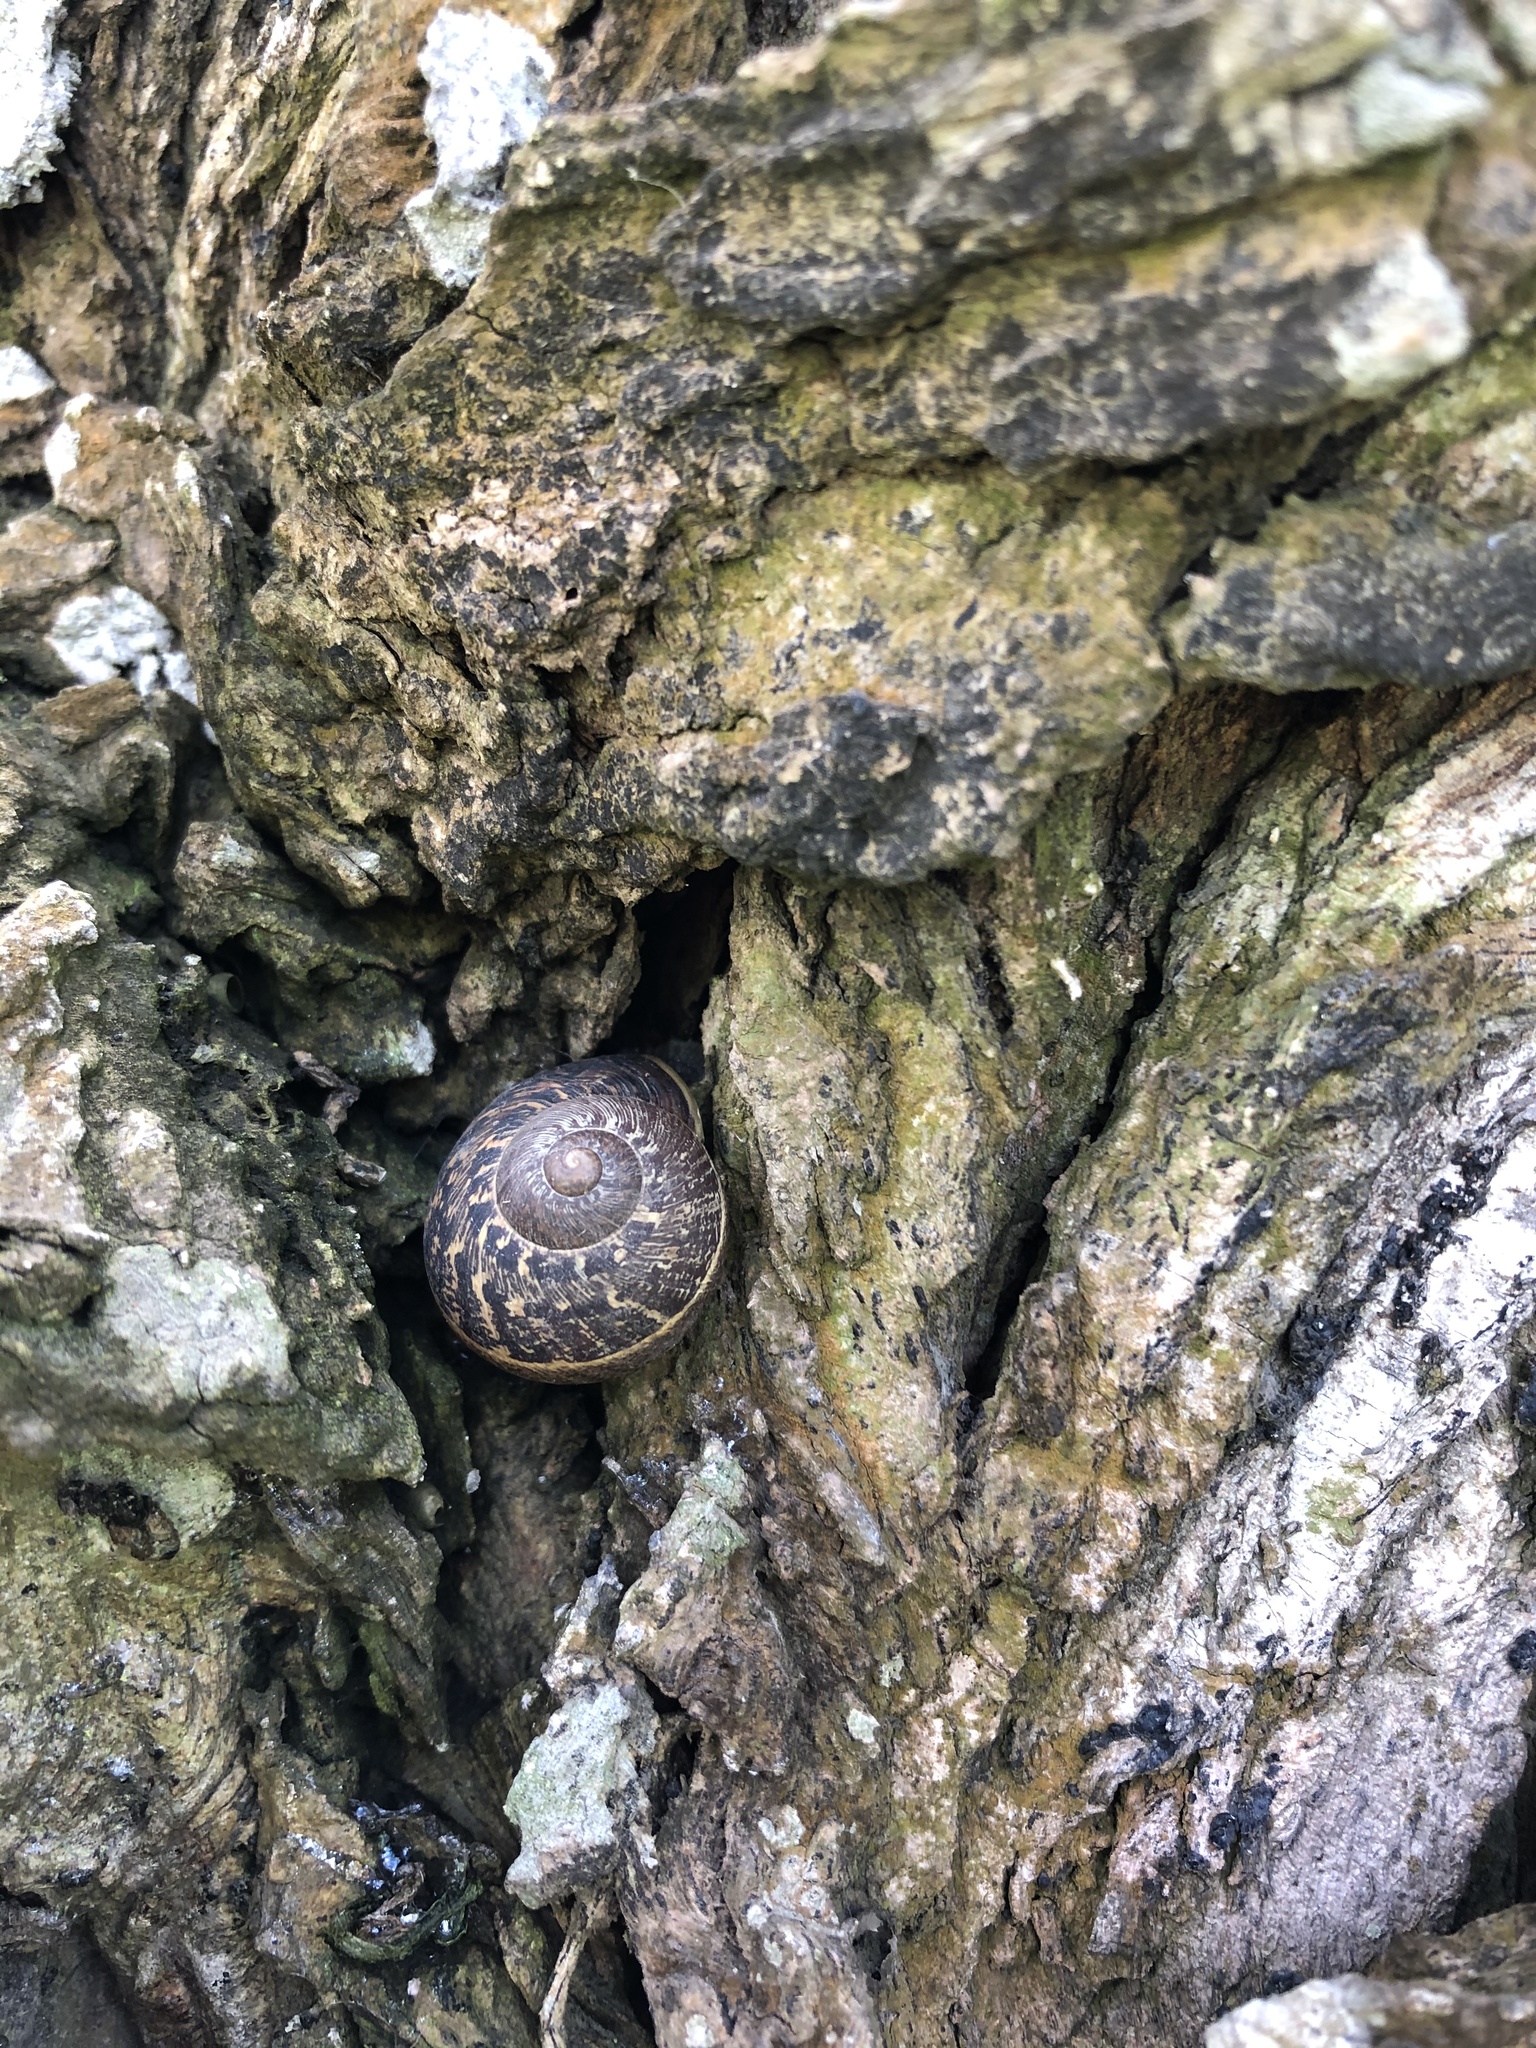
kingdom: Animalia
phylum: Mollusca
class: Gastropoda
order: Stylommatophora
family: Helicidae
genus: Cornu
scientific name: Cornu aspersum
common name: Brown garden snail
